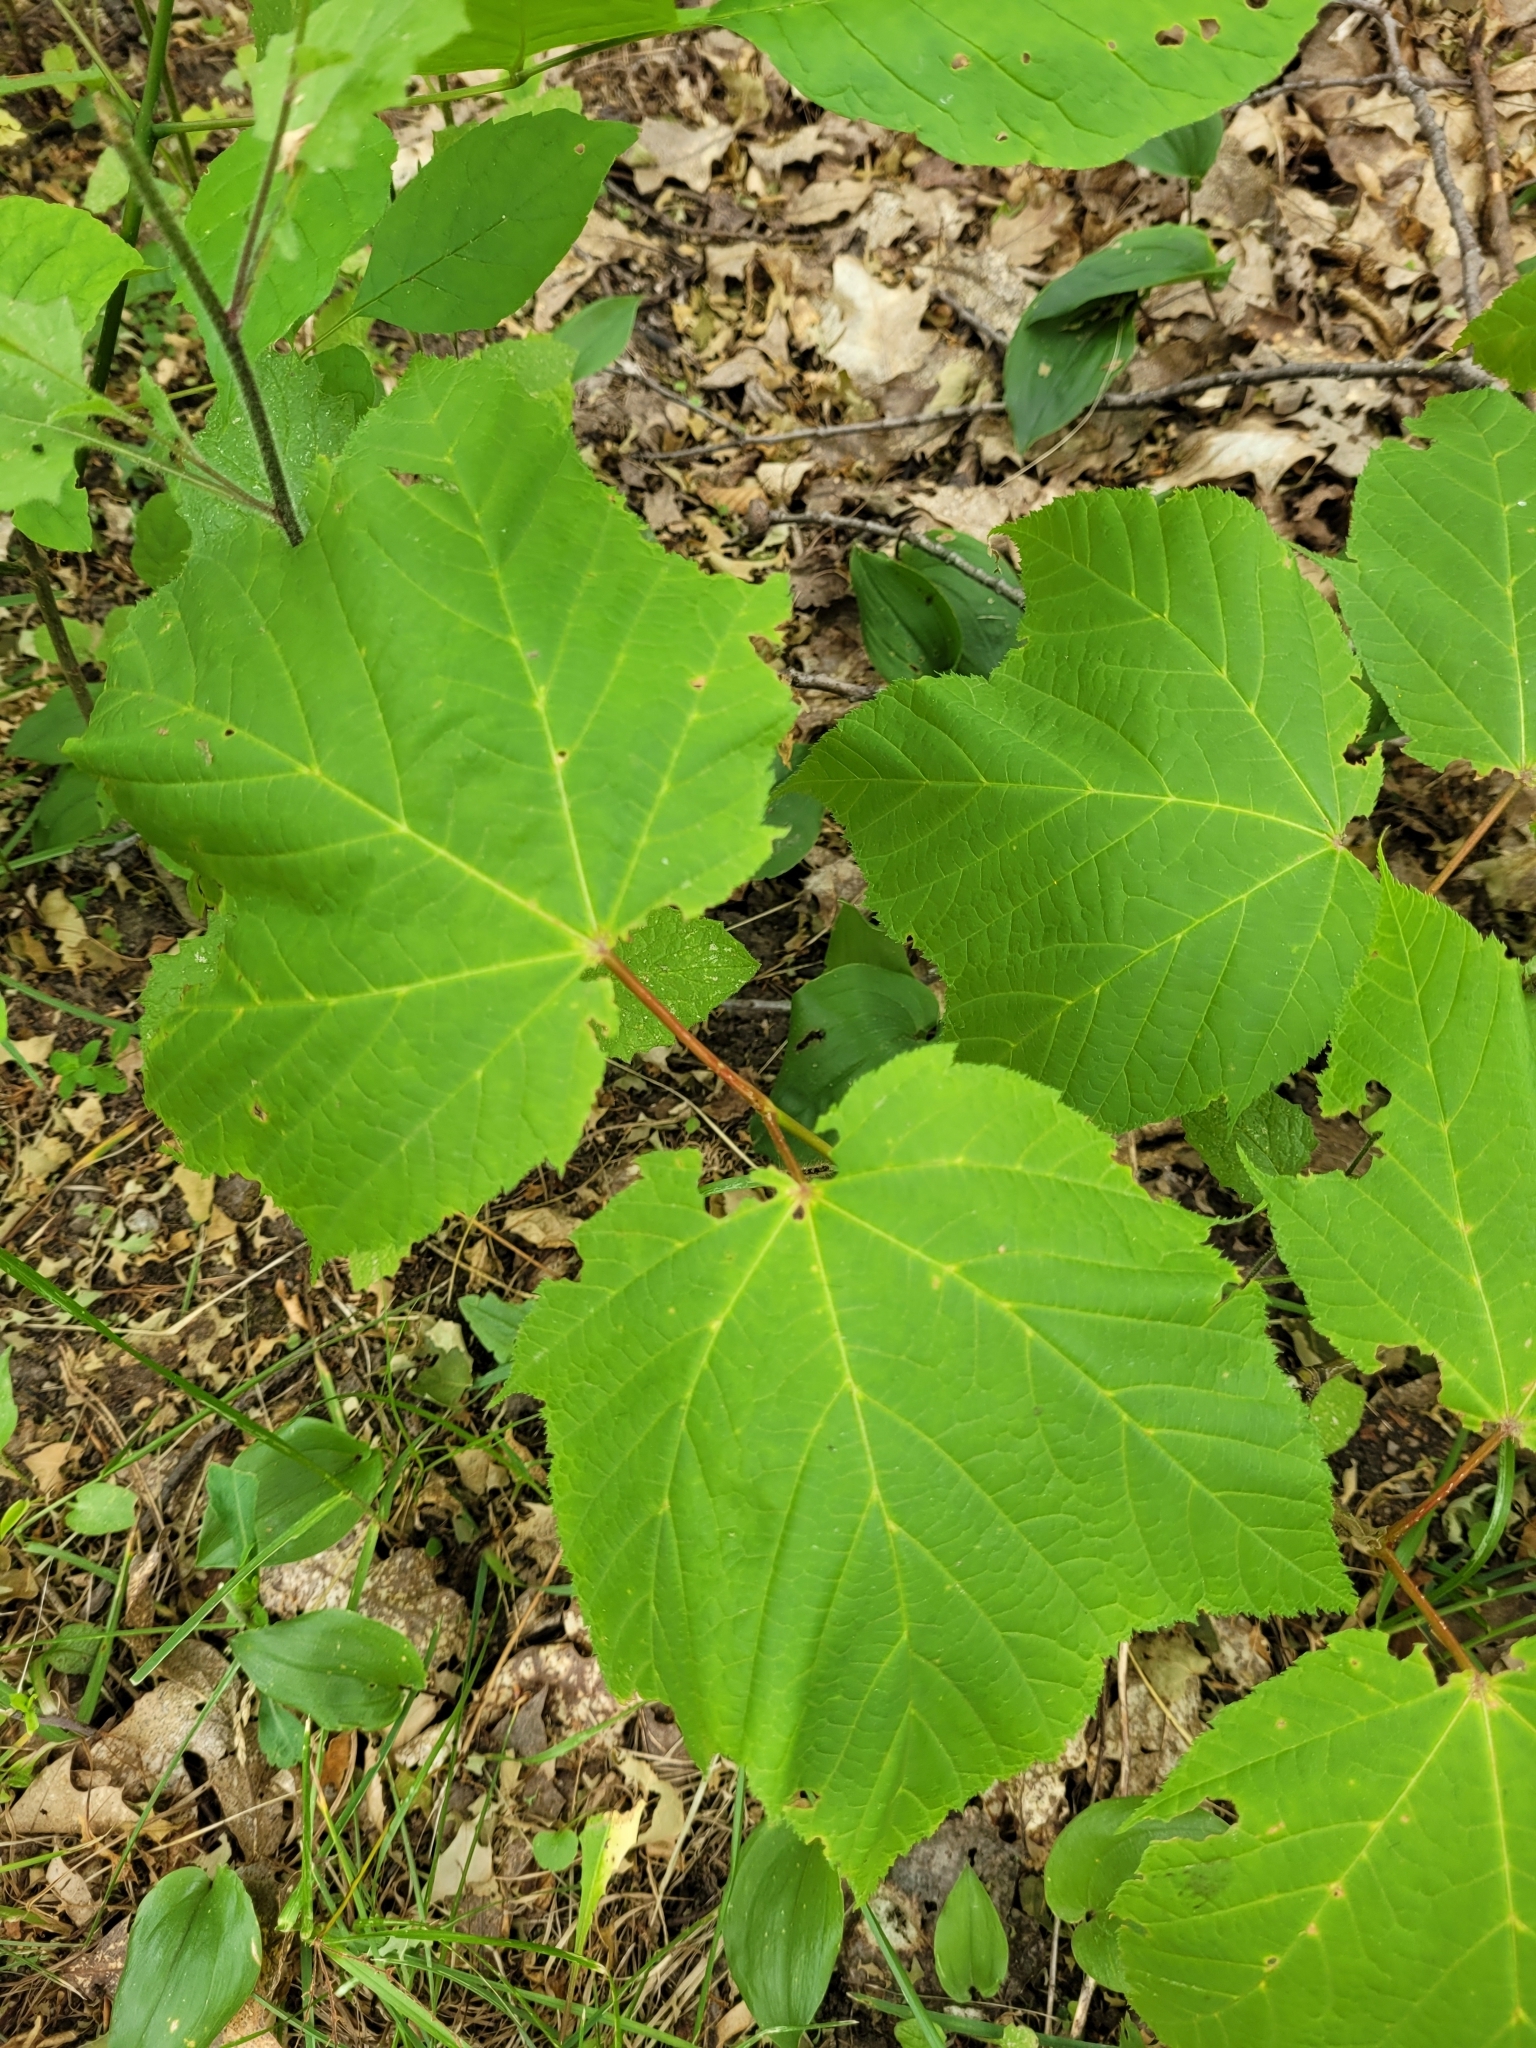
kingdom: Plantae
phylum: Tracheophyta
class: Magnoliopsida
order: Sapindales
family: Sapindaceae
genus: Acer
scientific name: Acer pensylvanicum
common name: Moosewood
